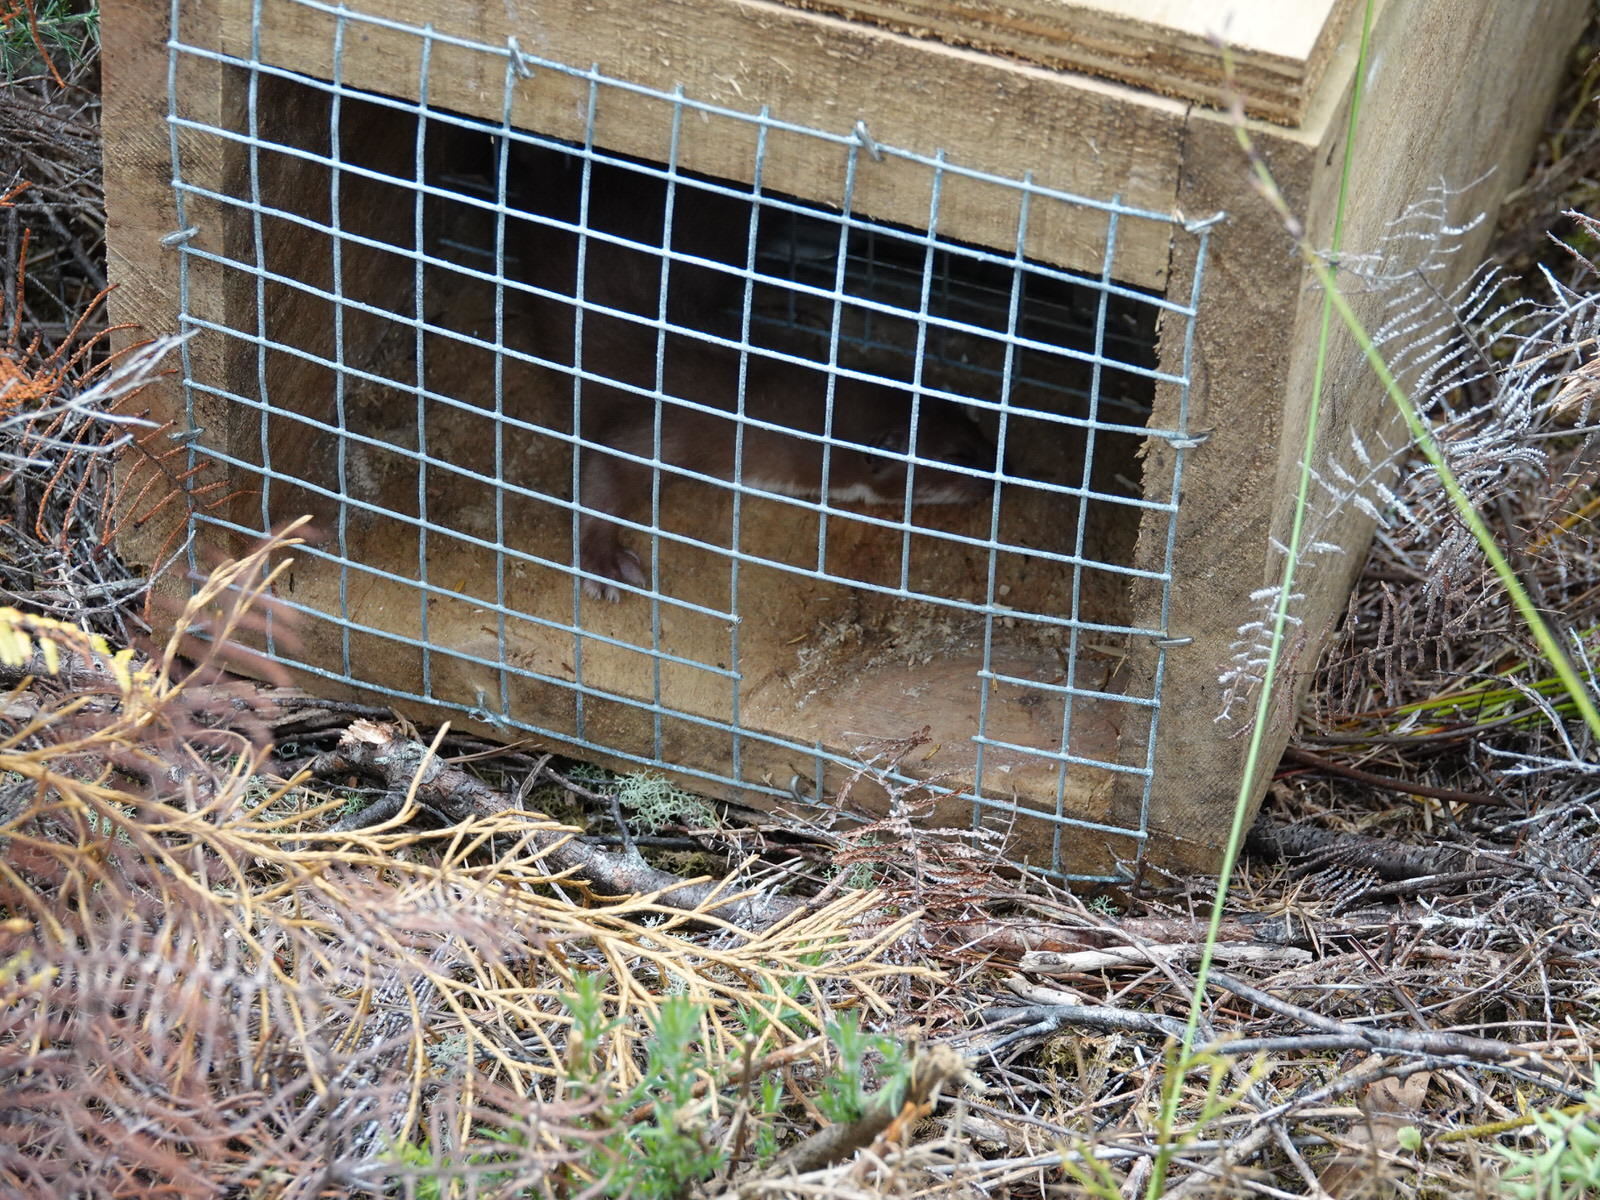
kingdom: Animalia
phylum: Chordata
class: Mammalia
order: Carnivora
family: Mustelidae
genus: Mustela
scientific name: Mustela erminea
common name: Stoat
